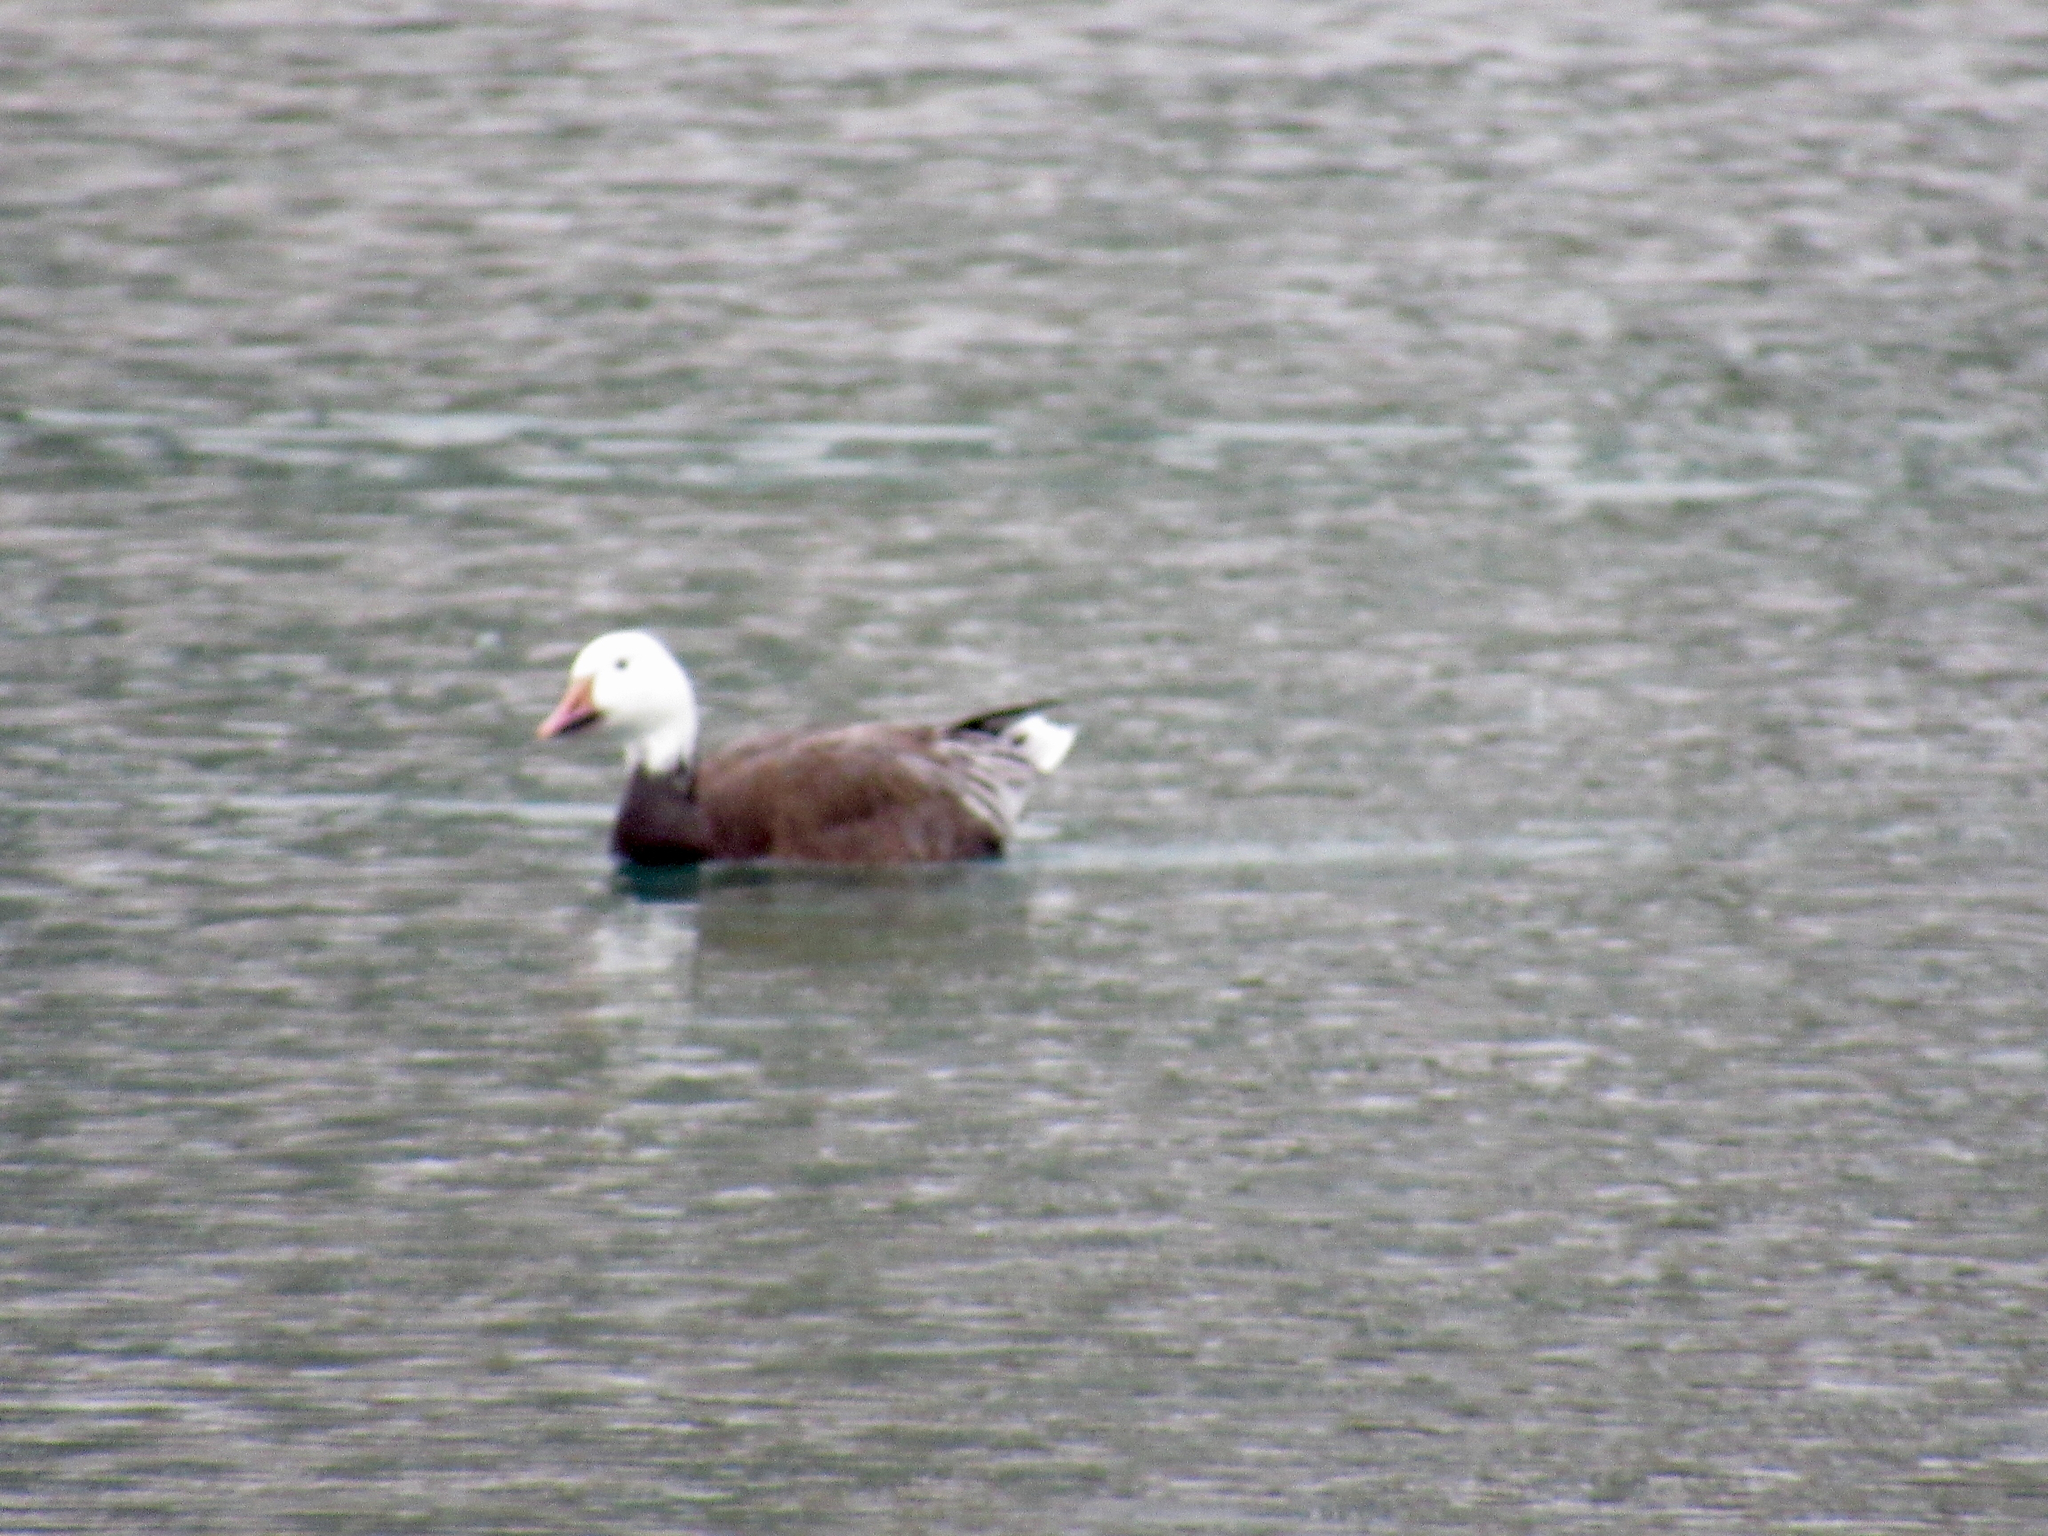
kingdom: Animalia
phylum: Chordata
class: Aves
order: Anseriformes
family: Anatidae
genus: Anser
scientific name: Anser caerulescens
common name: Snow goose
